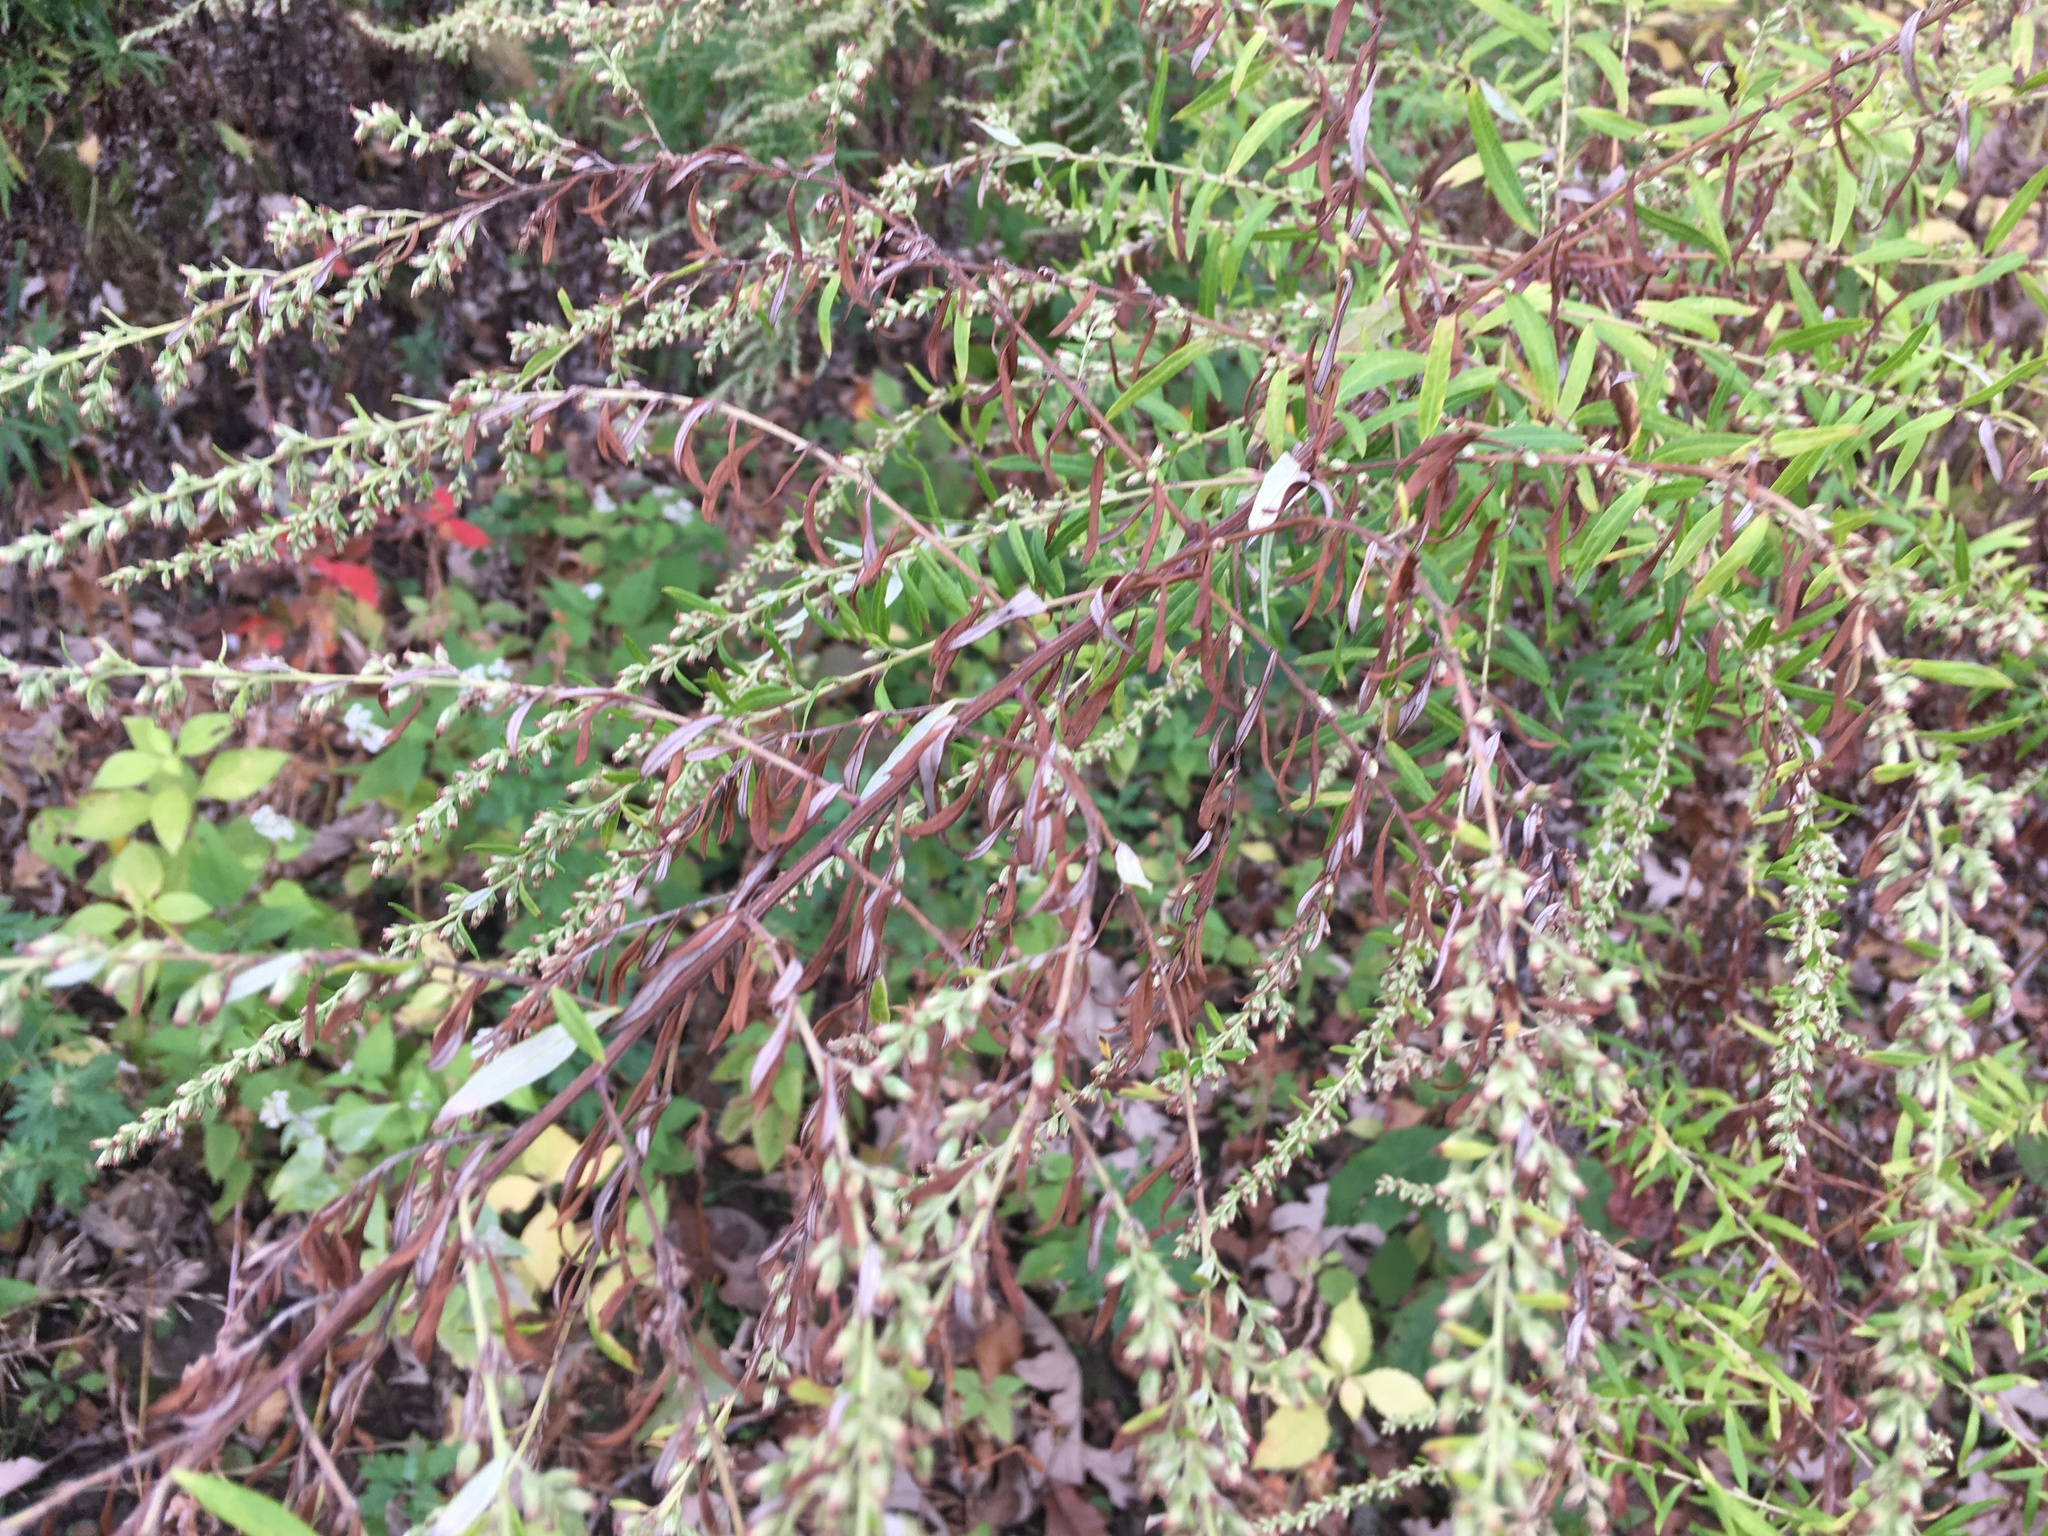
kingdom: Plantae
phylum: Tracheophyta
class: Magnoliopsida
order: Asterales
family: Asteraceae
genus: Artemisia
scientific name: Artemisia vulgaris
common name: Mugwort
